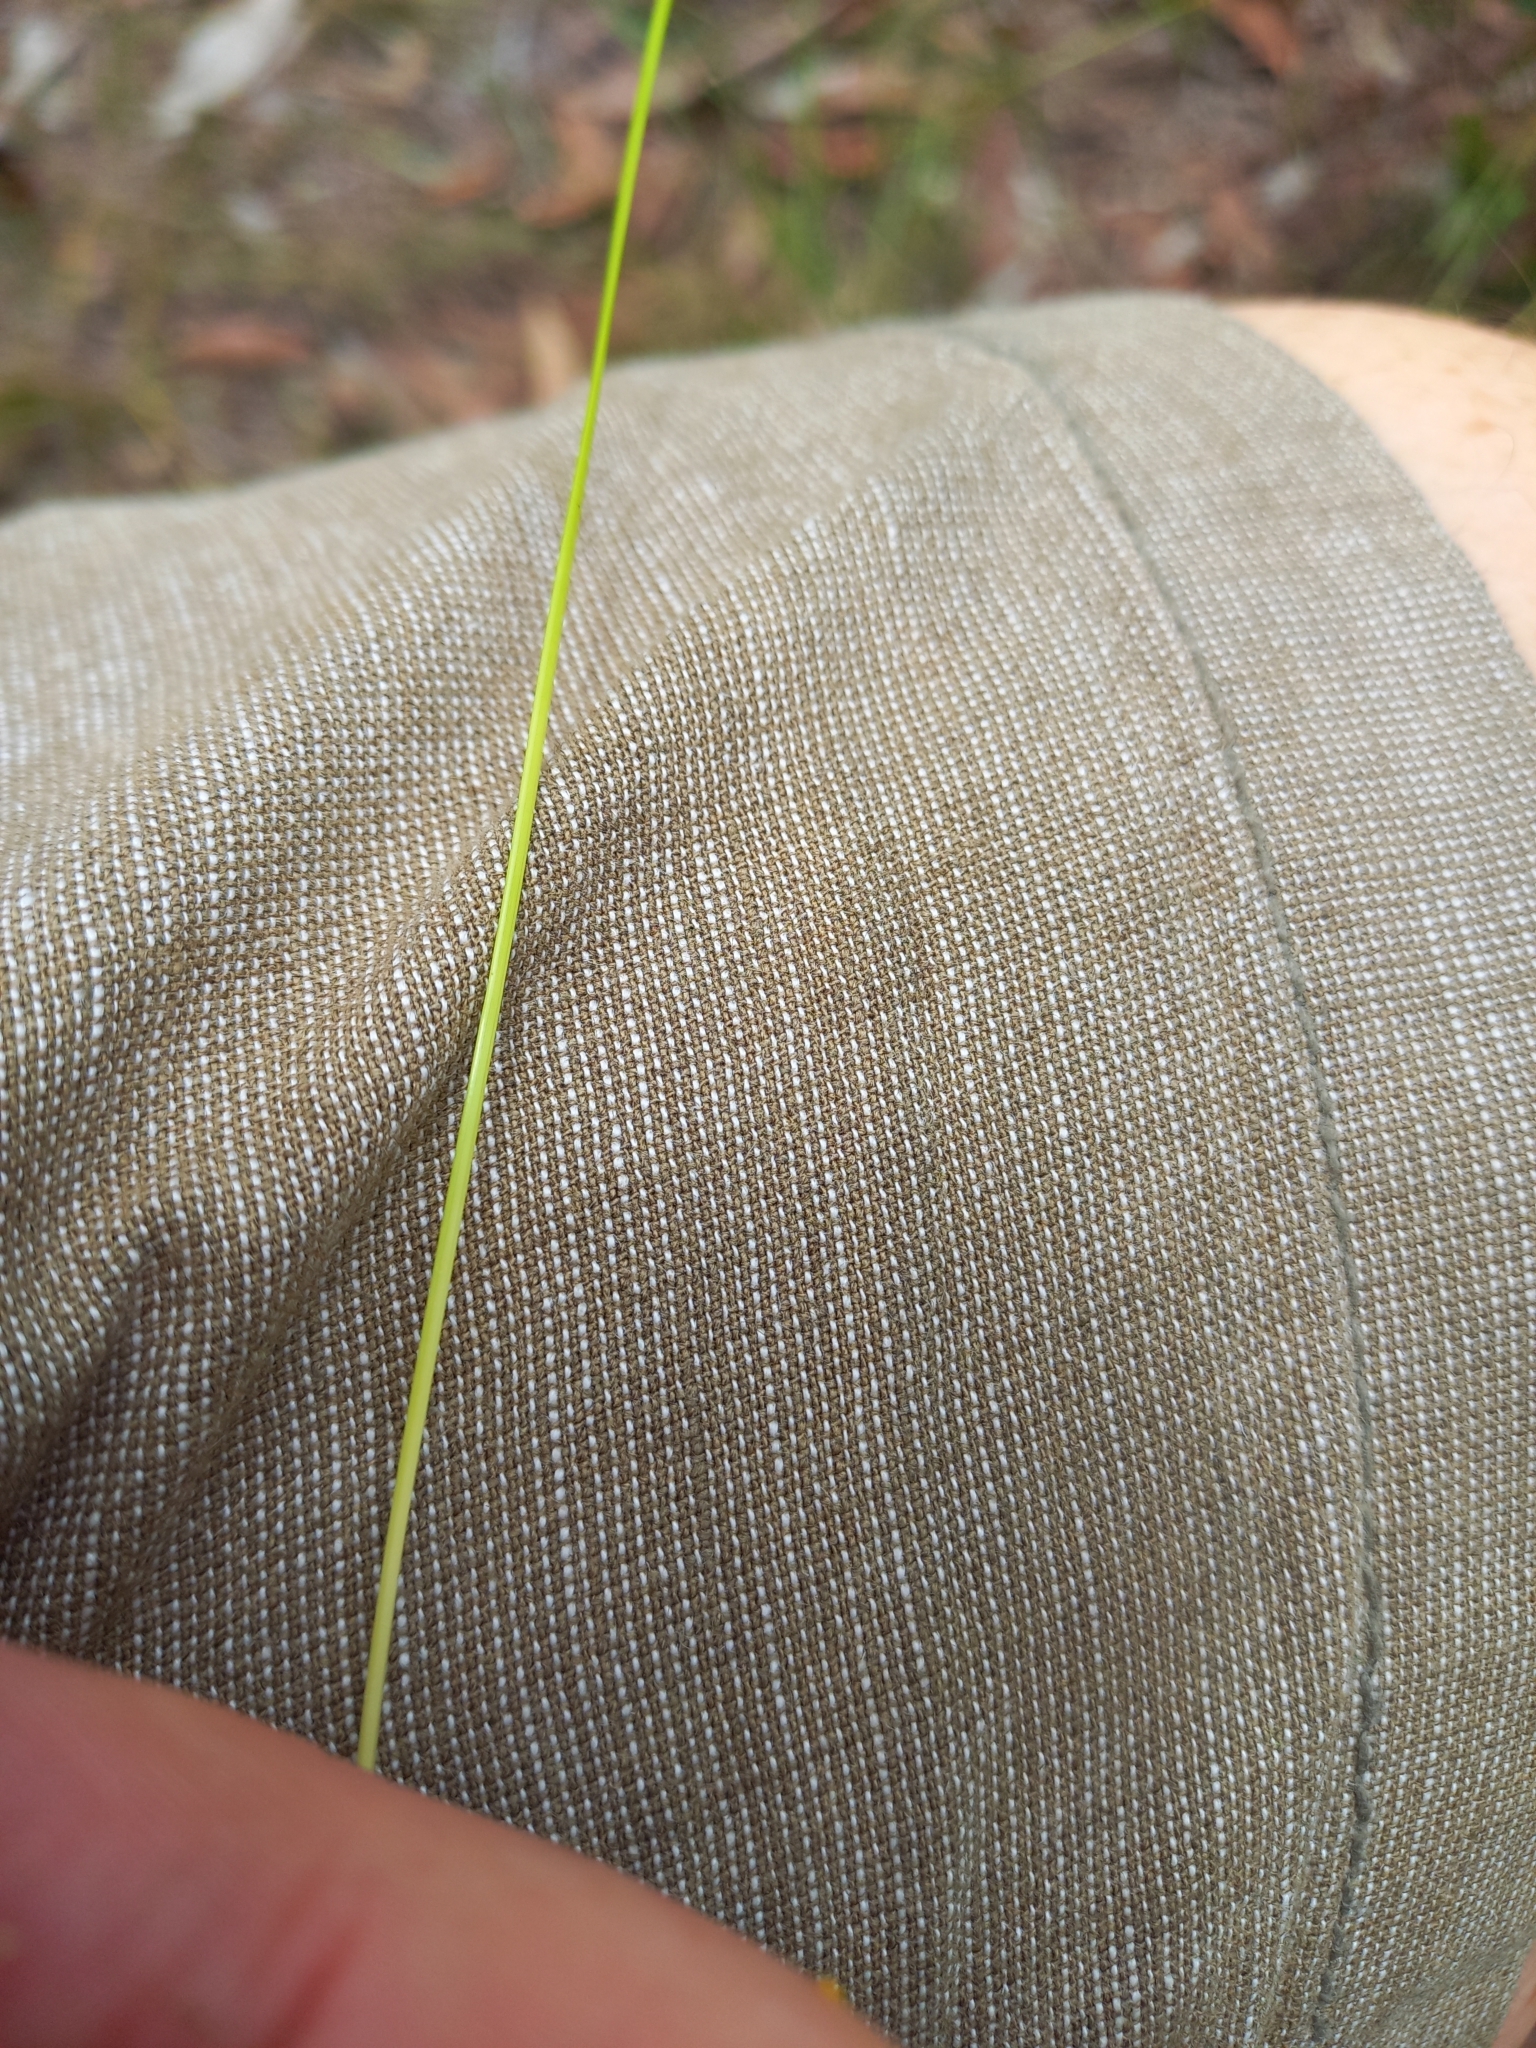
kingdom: Plantae
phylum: Tracheophyta
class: Liliopsida
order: Poales
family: Cyperaceae
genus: Ptilothrix
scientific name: Ptilothrix deusta
